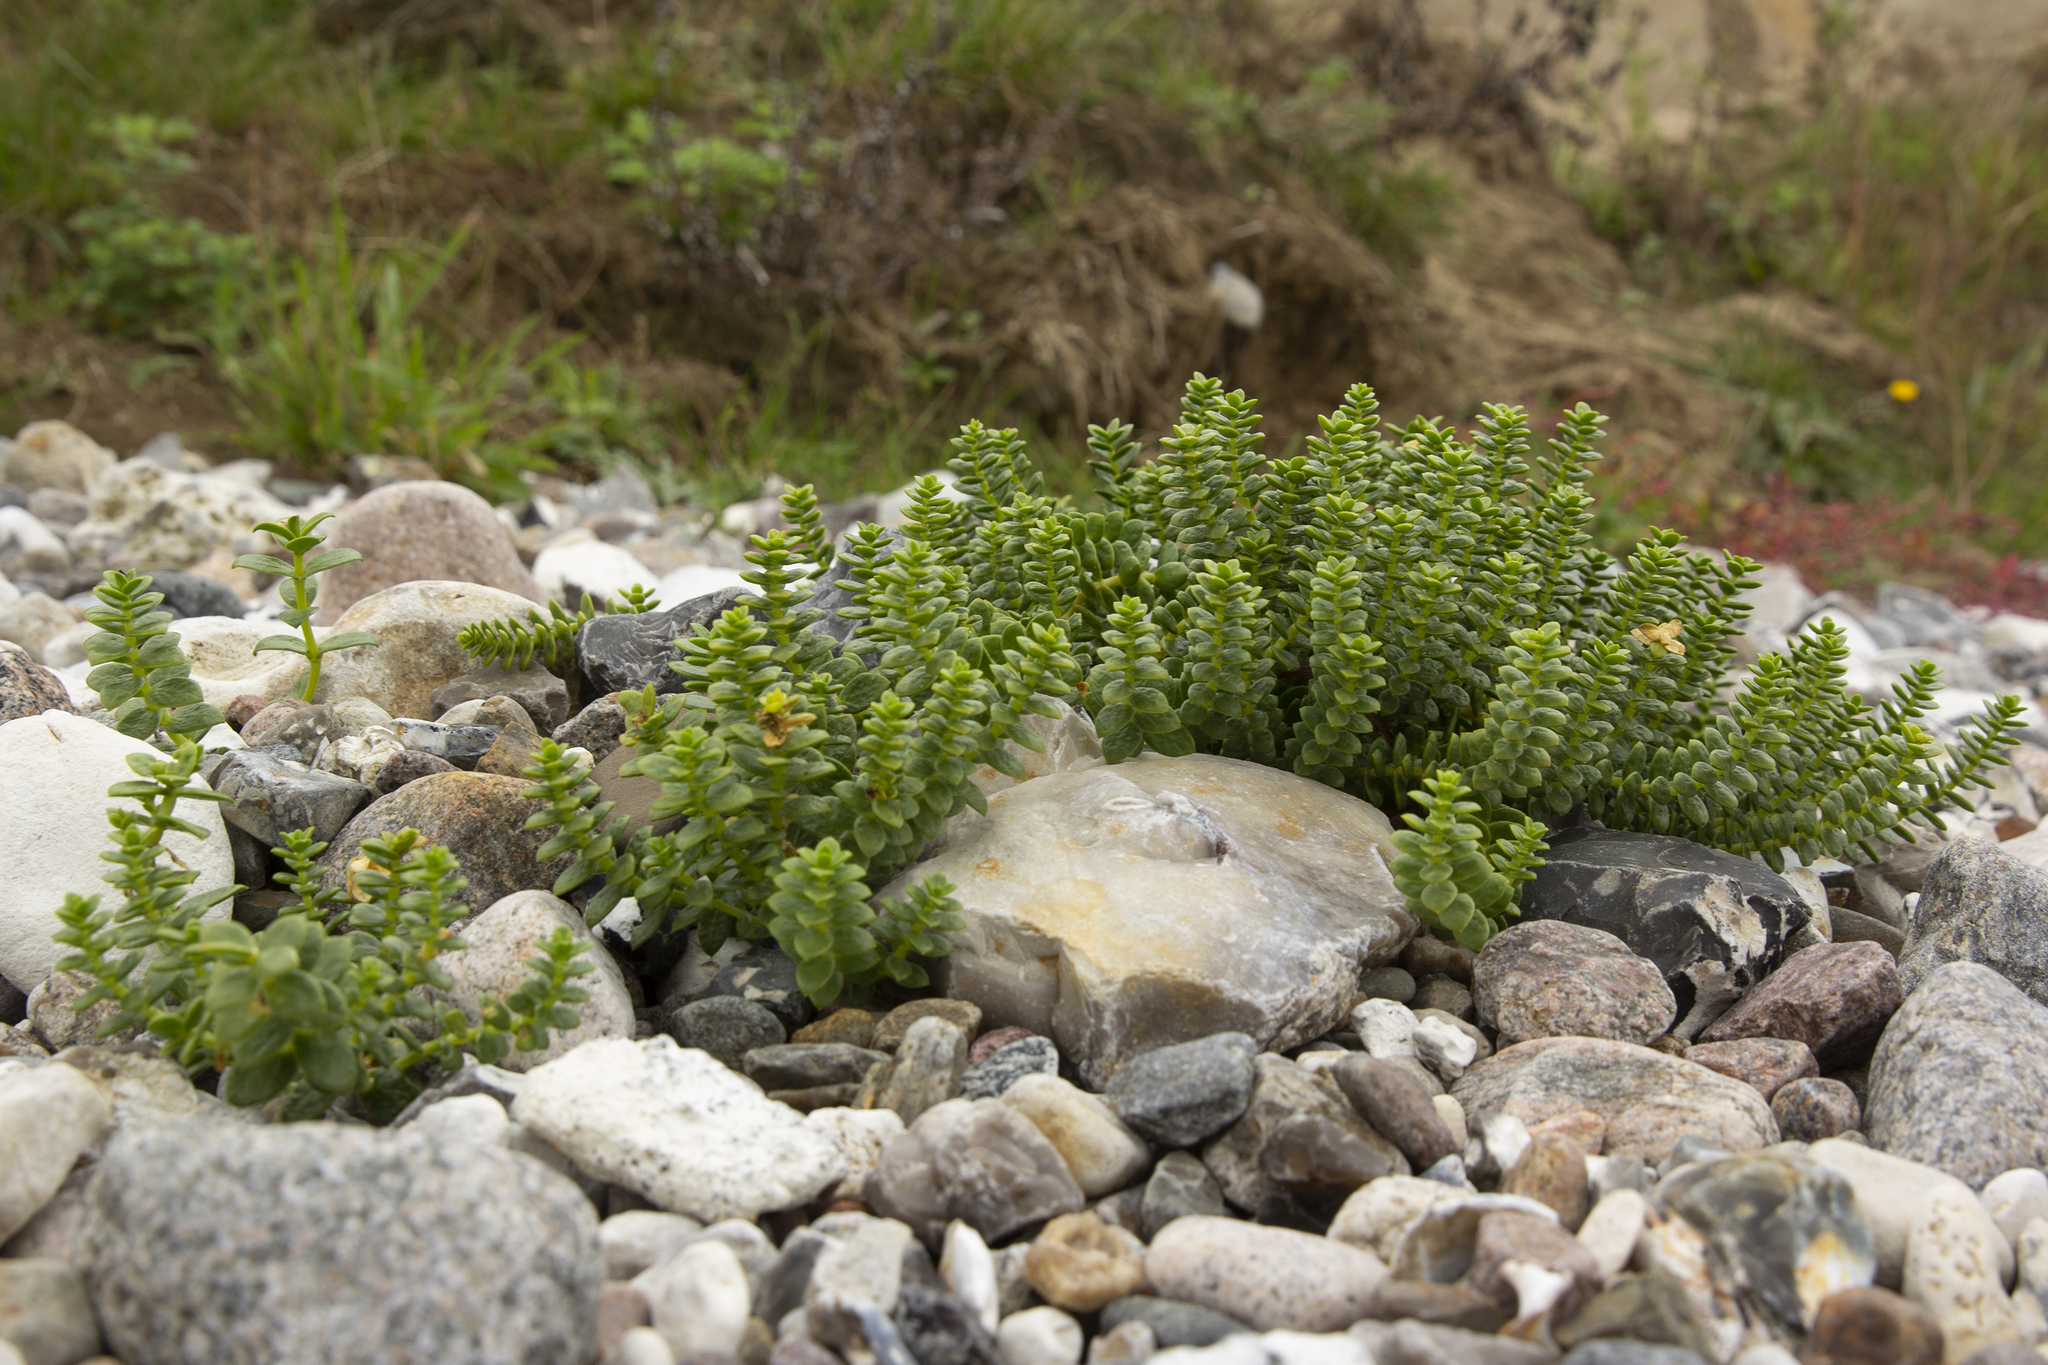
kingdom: Plantae
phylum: Tracheophyta
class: Magnoliopsida
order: Caryophyllales
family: Caryophyllaceae
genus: Honckenya
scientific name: Honckenya peploides
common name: Sea sandwort
